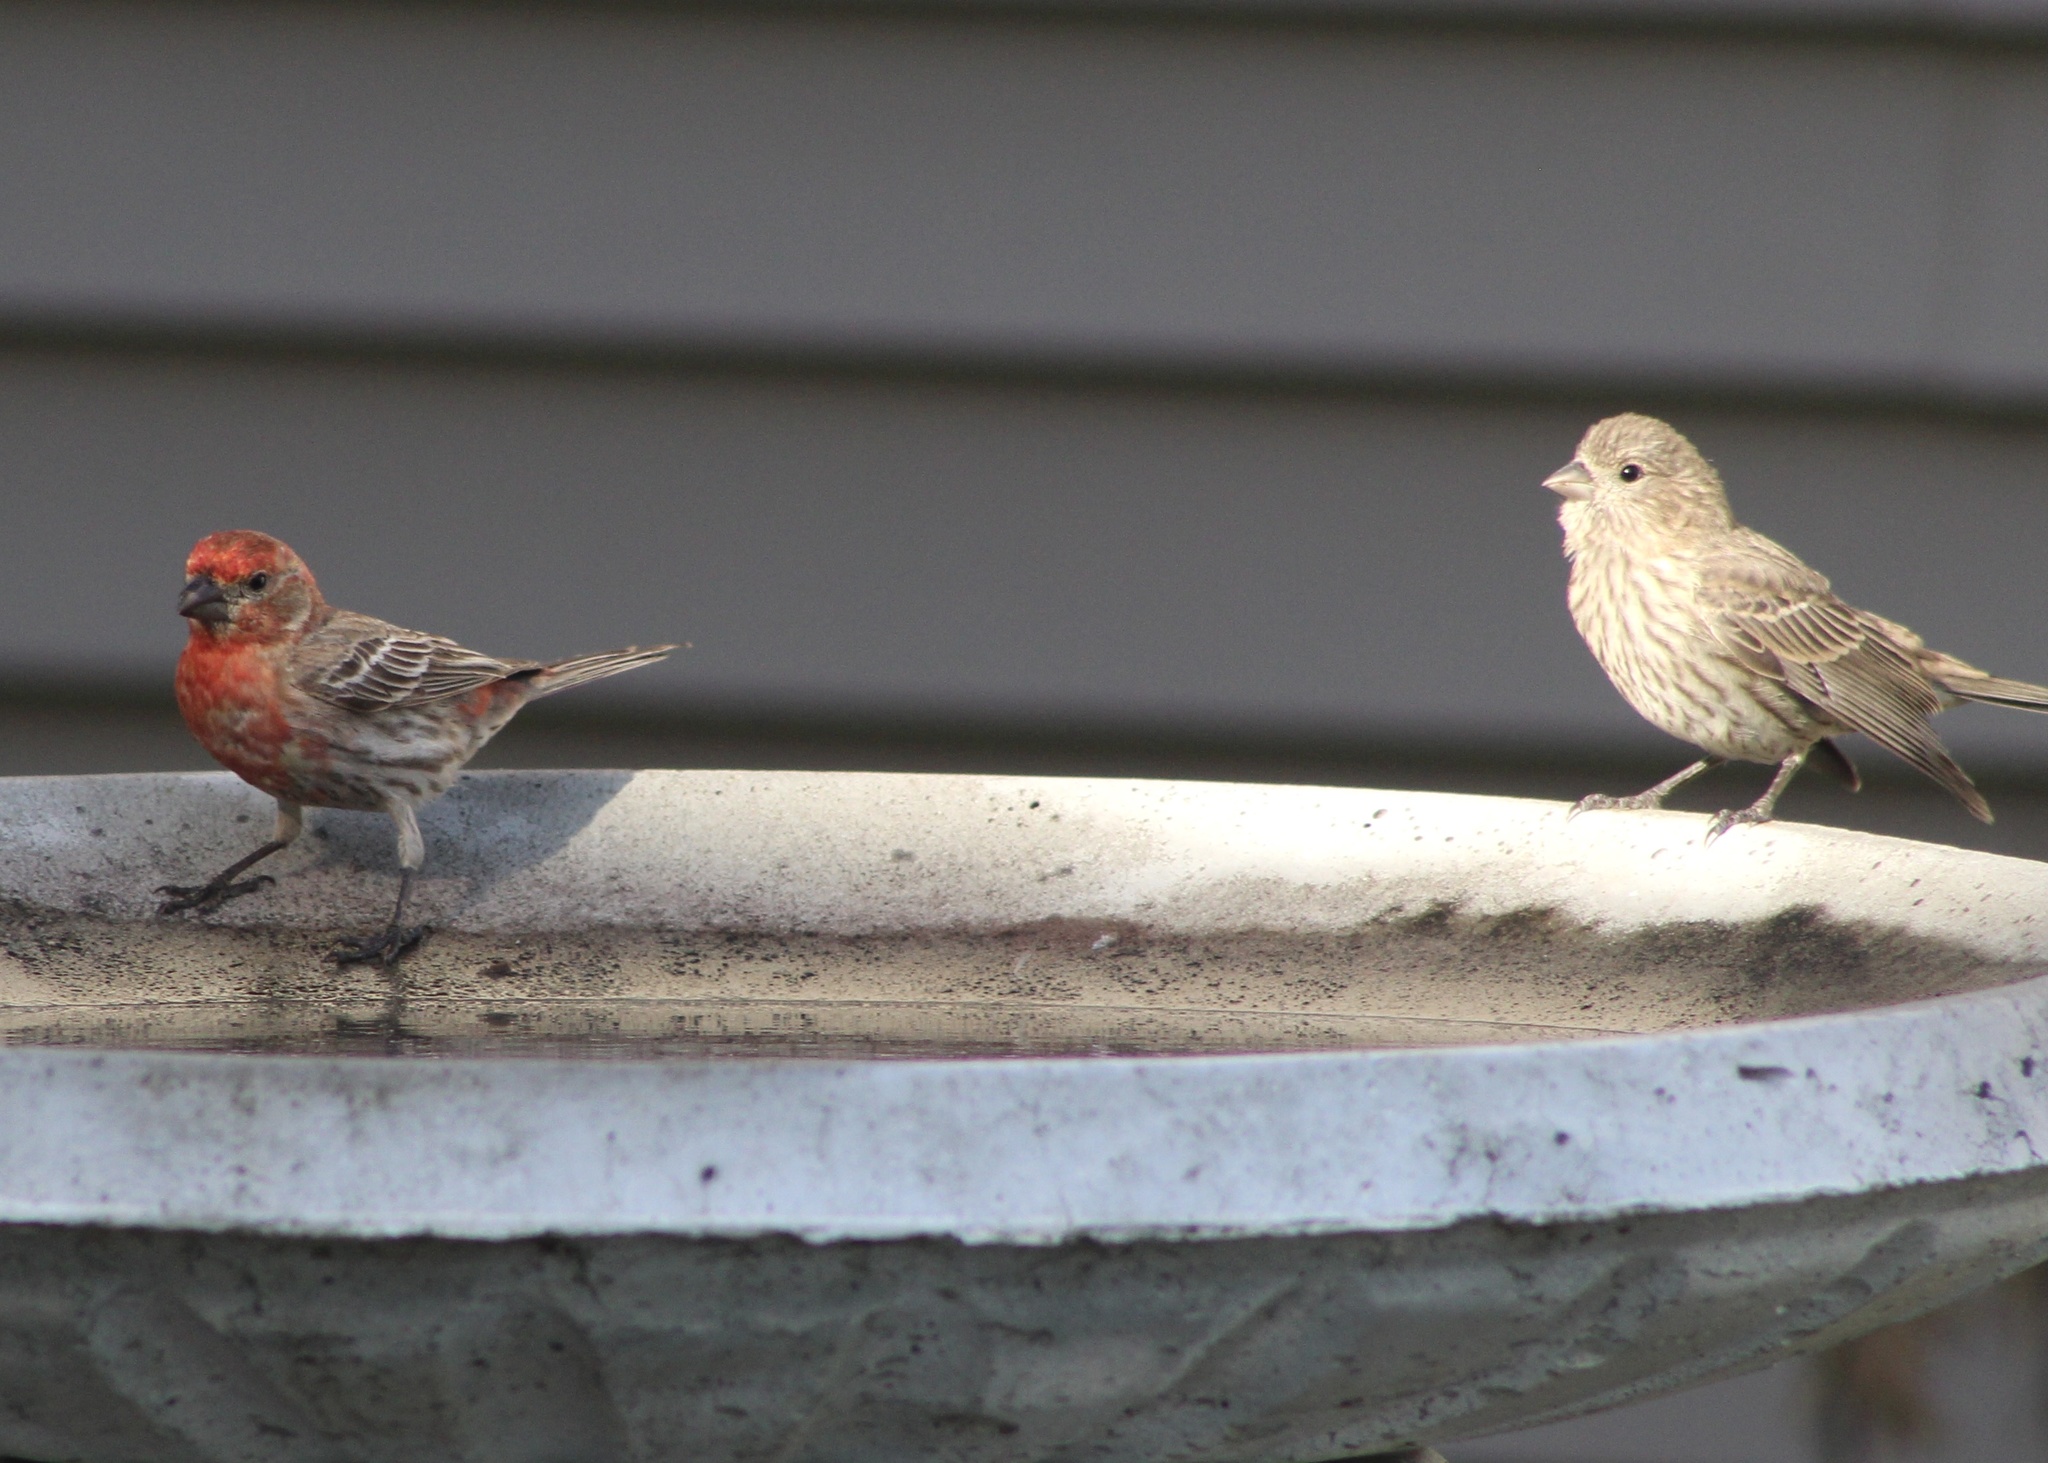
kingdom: Animalia
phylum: Chordata
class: Aves
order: Passeriformes
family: Fringillidae
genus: Haemorhous
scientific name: Haemorhous mexicanus
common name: House finch
